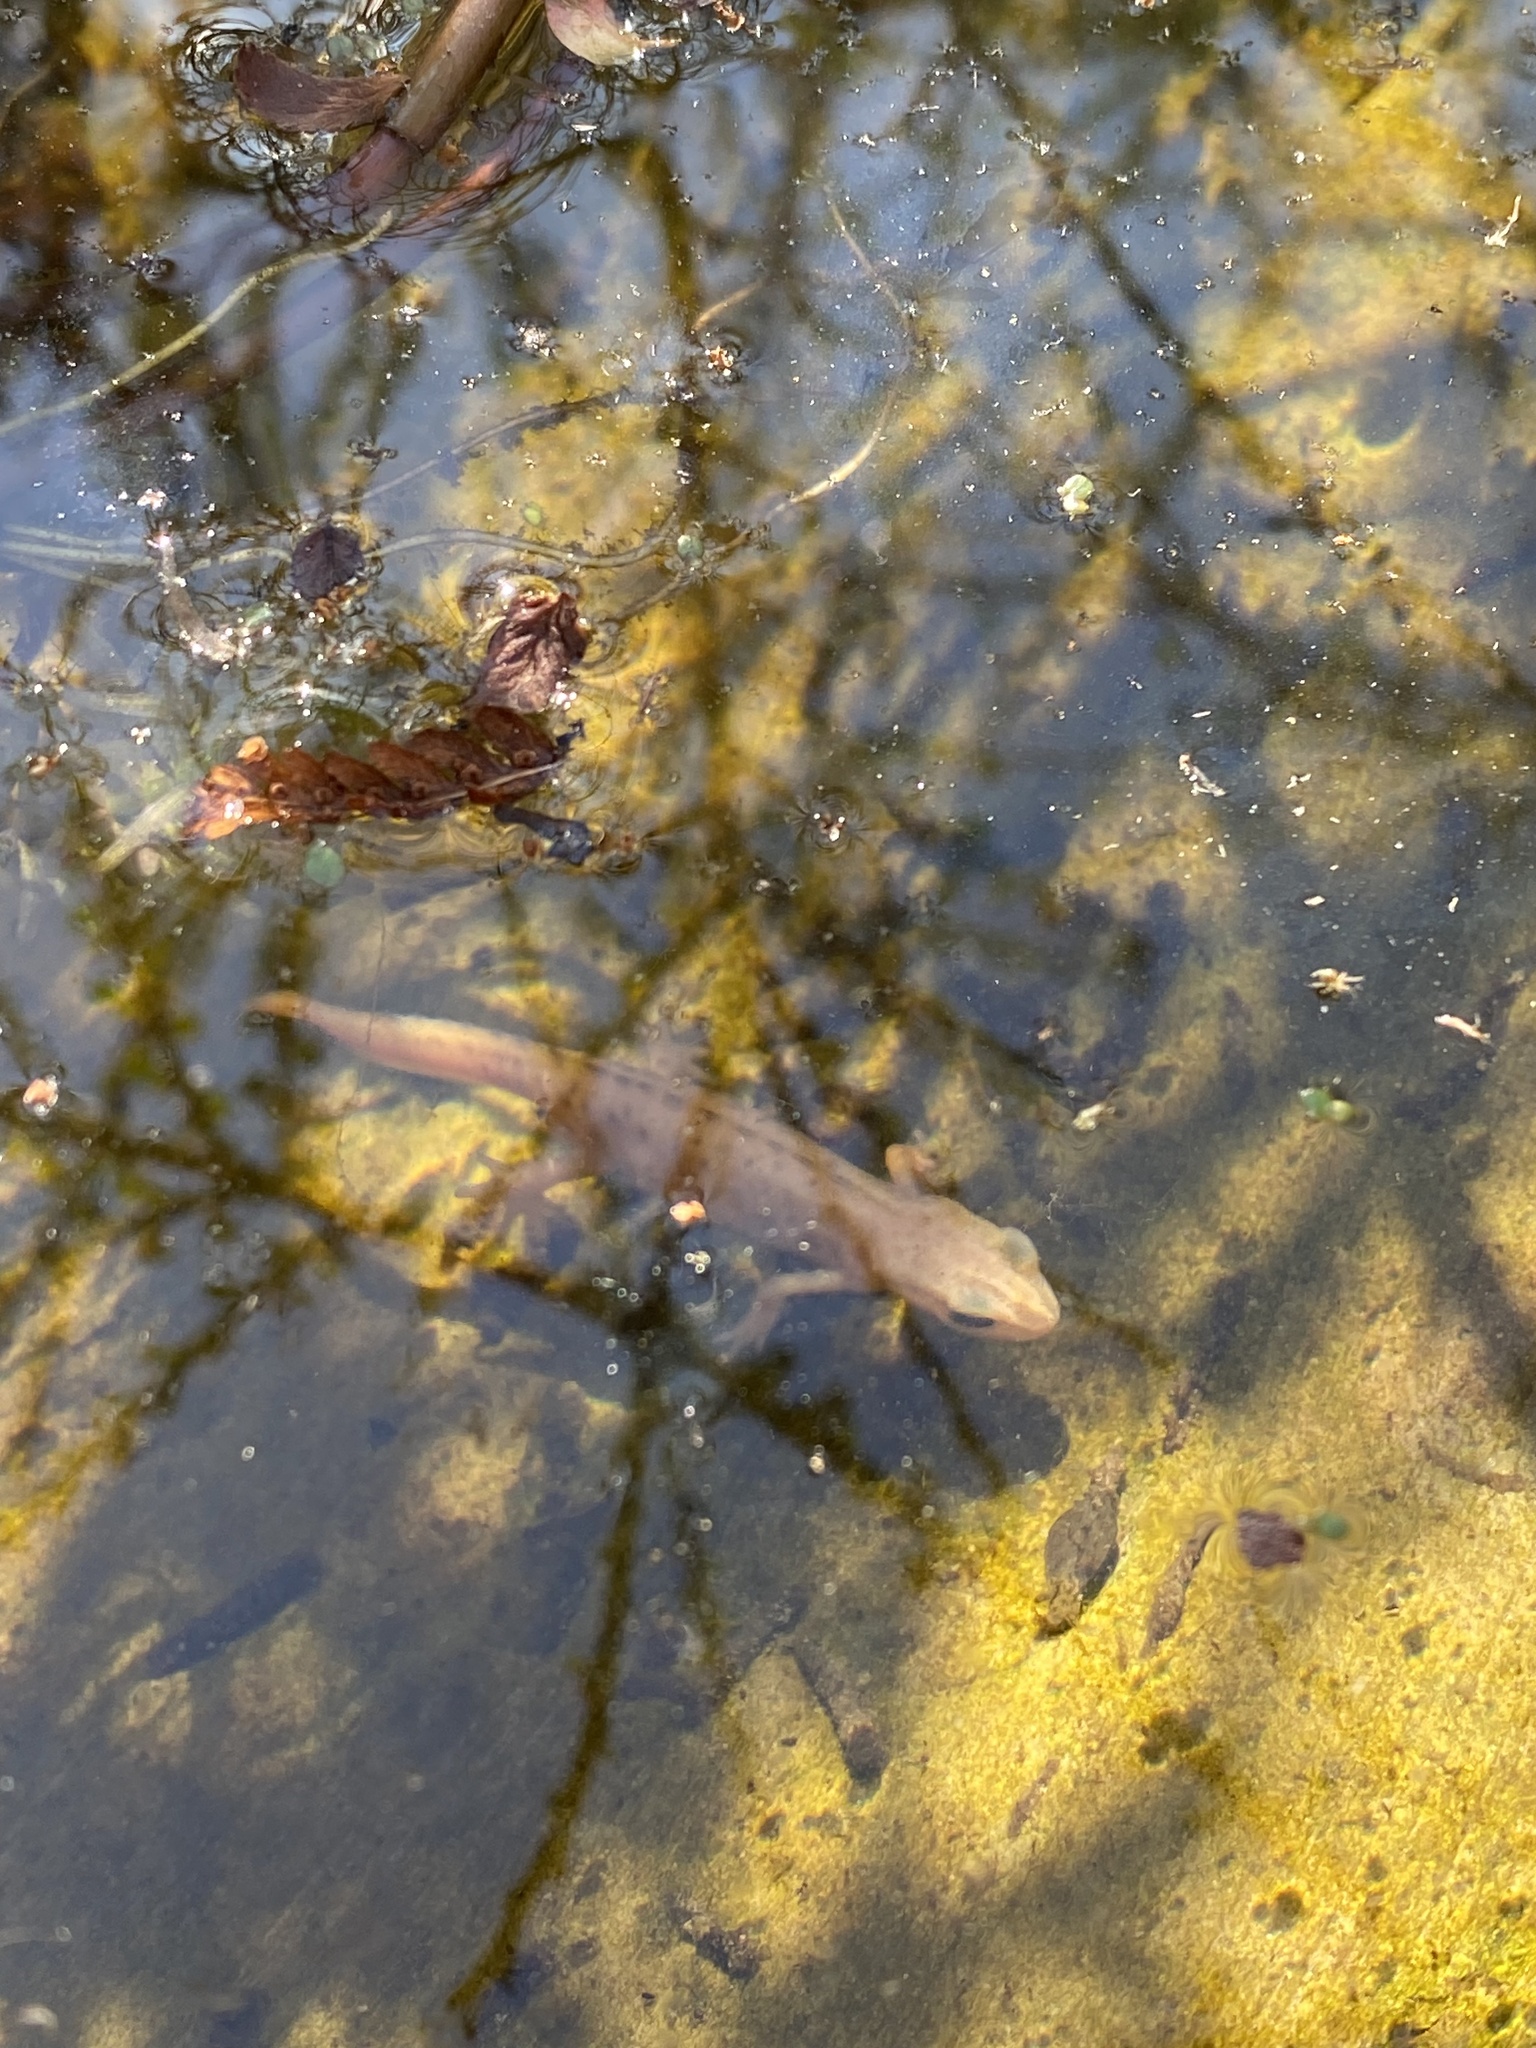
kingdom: Animalia
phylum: Chordata
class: Amphibia
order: Caudata
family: Salamandridae
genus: Lissotriton
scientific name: Lissotriton vulgaris
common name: Smooth newt
